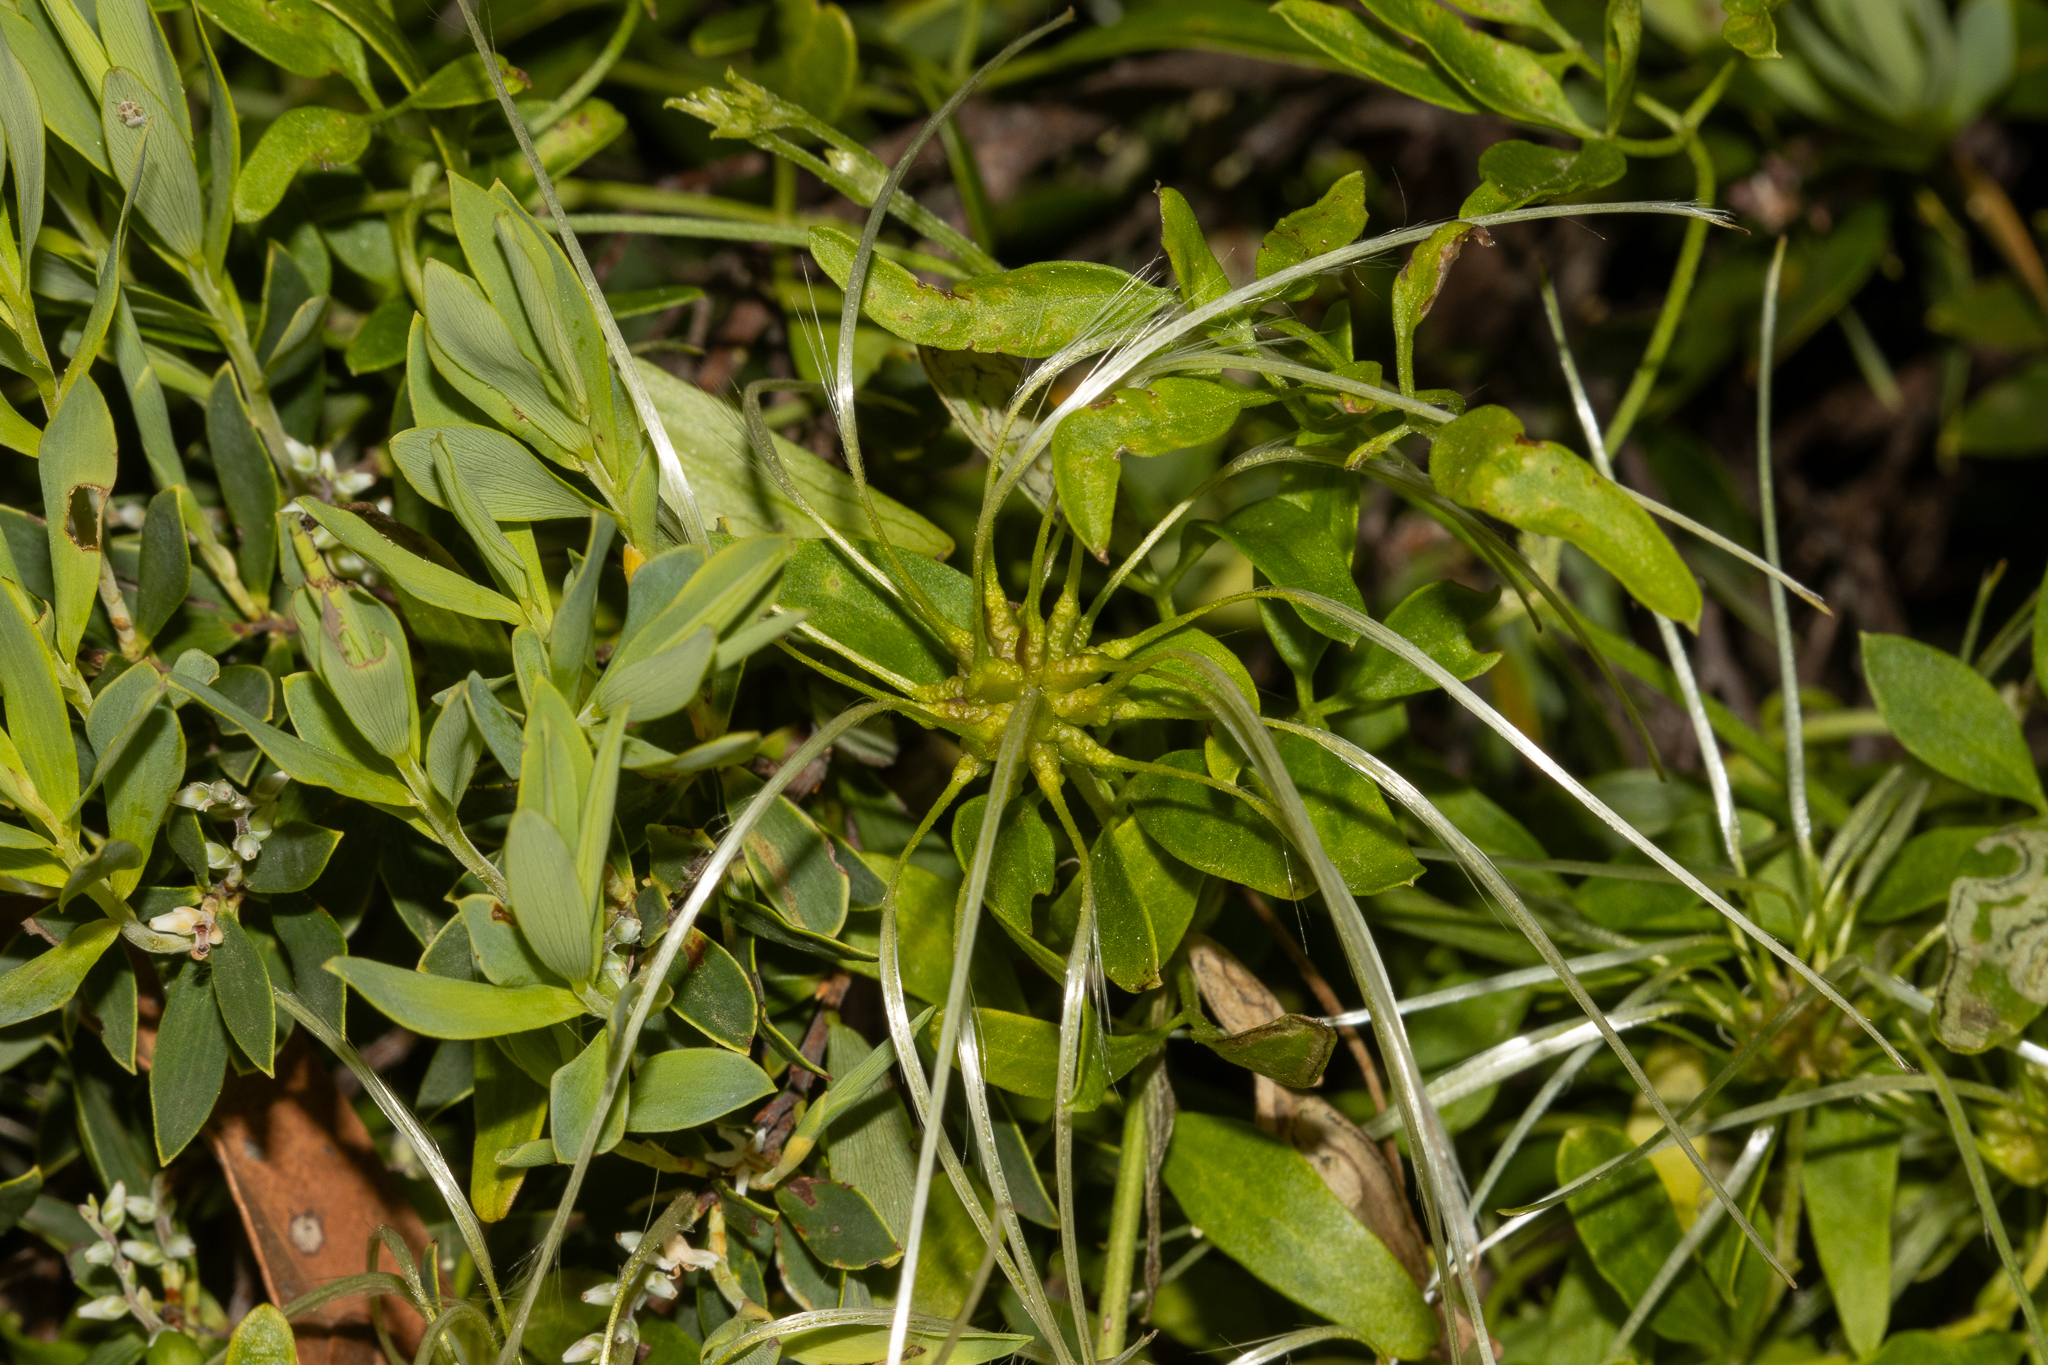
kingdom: Plantae
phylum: Tracheophyta
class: Magnoliopsida
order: Ranunculales
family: Ranunculaceae
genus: Clematis
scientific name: Clematis microphylla
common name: Headachevine
